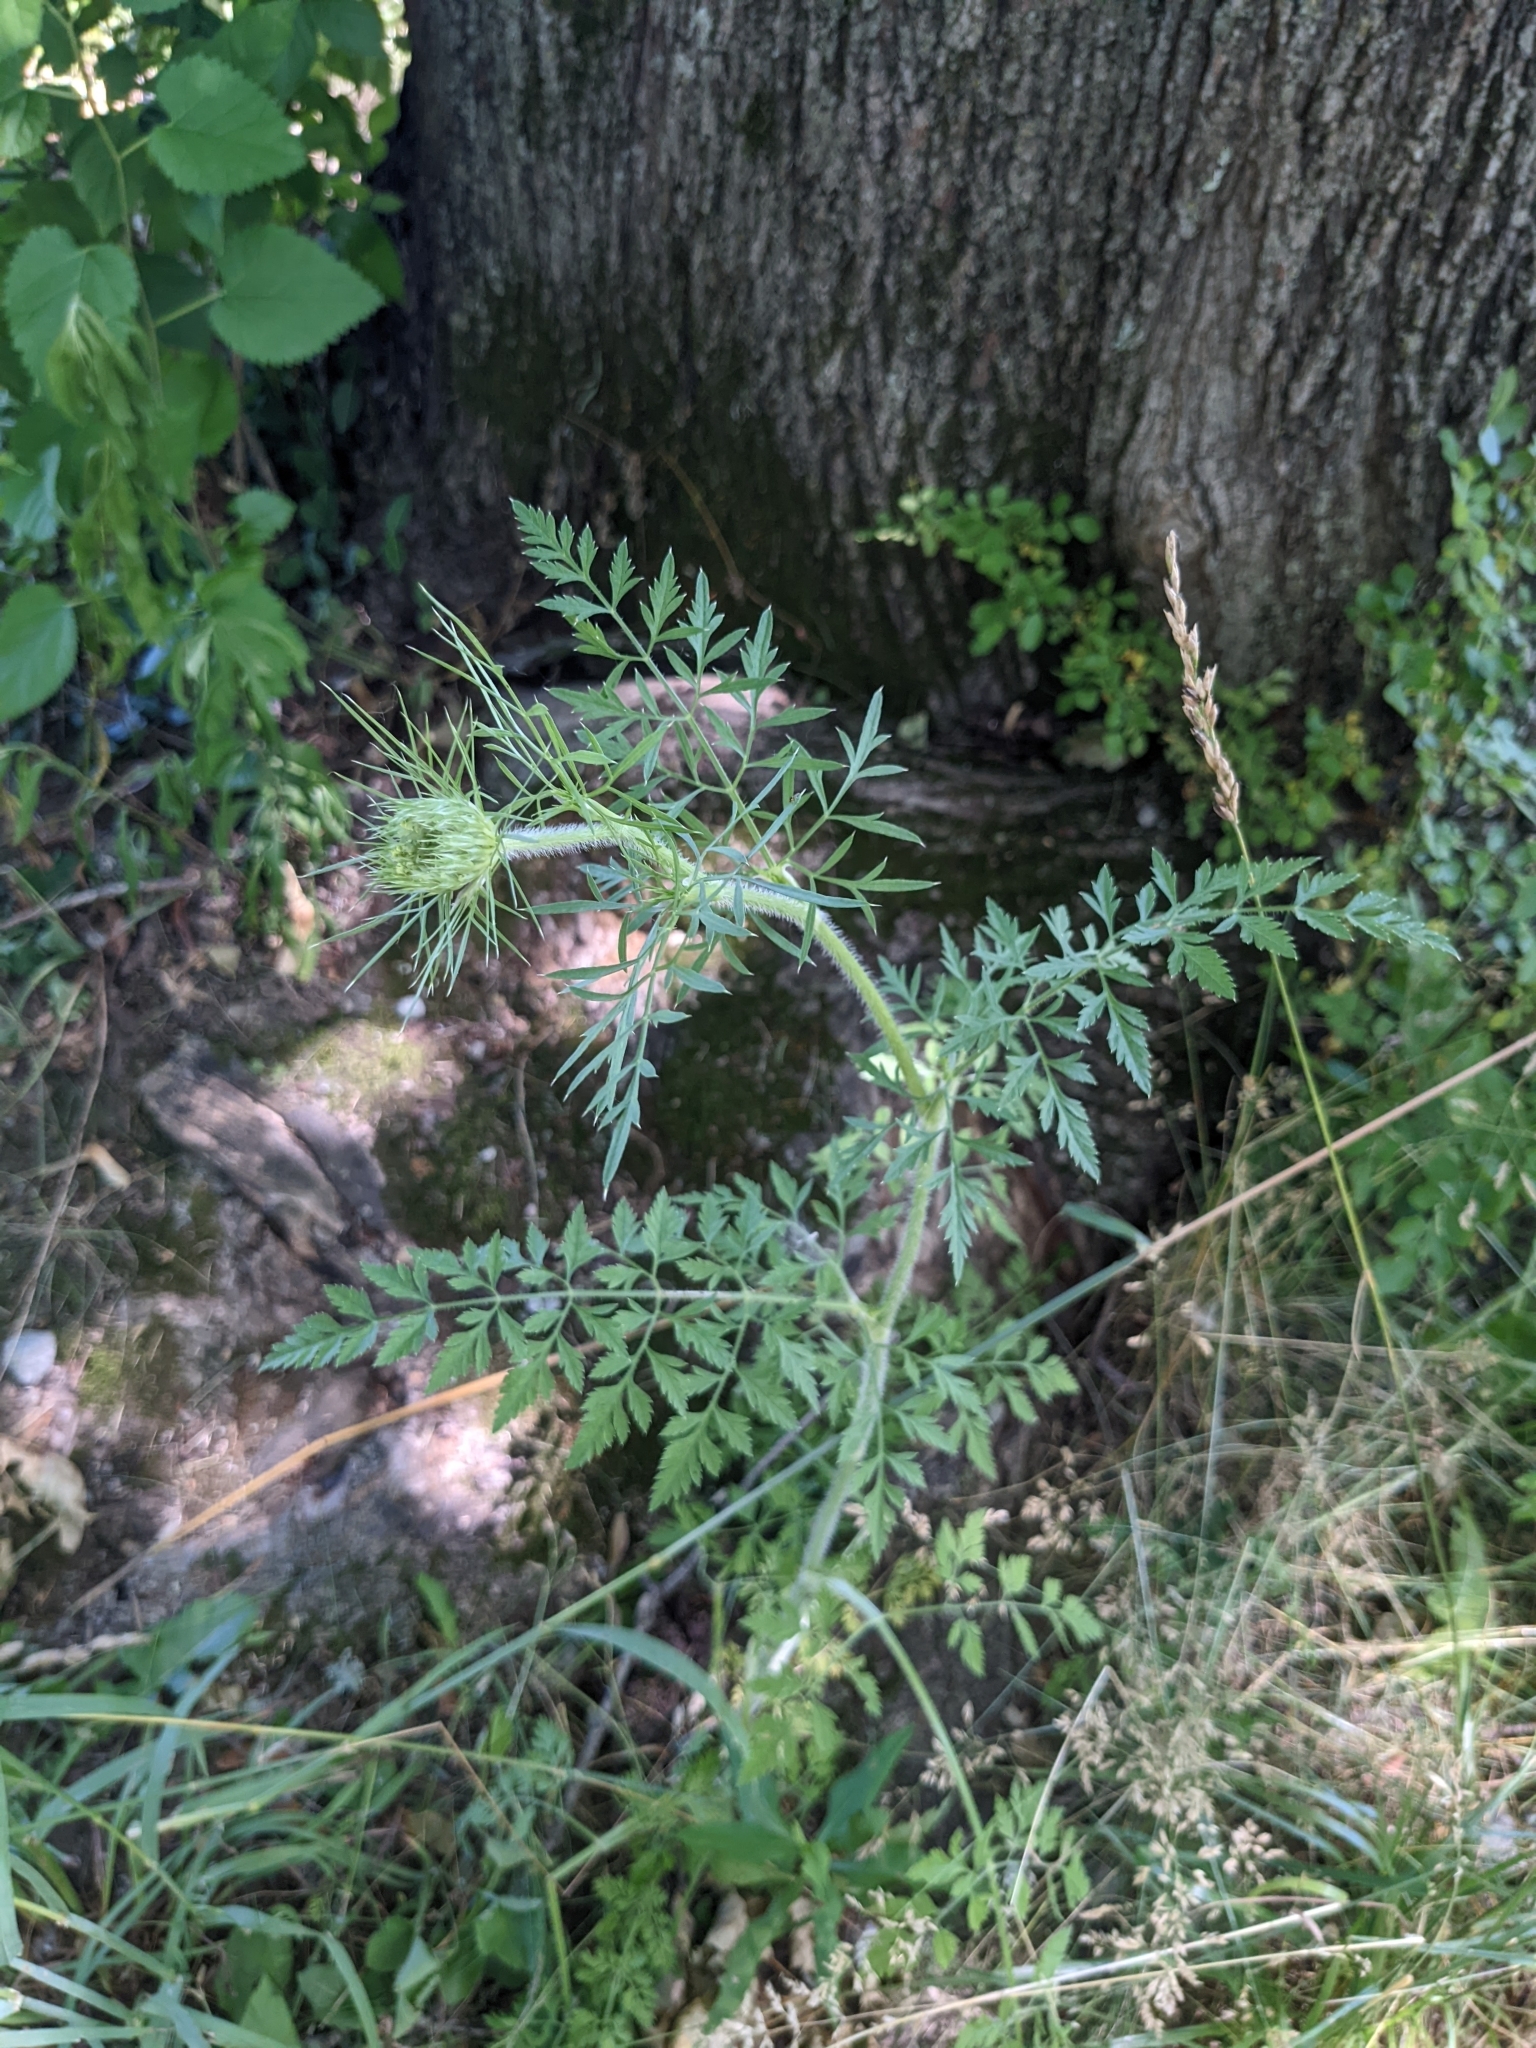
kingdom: Plantae
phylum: Tracheophyta
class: Magnoliopsida
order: Apiales
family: Apiaceae
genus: Daucus
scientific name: Daucus carota
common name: Wild carrot
